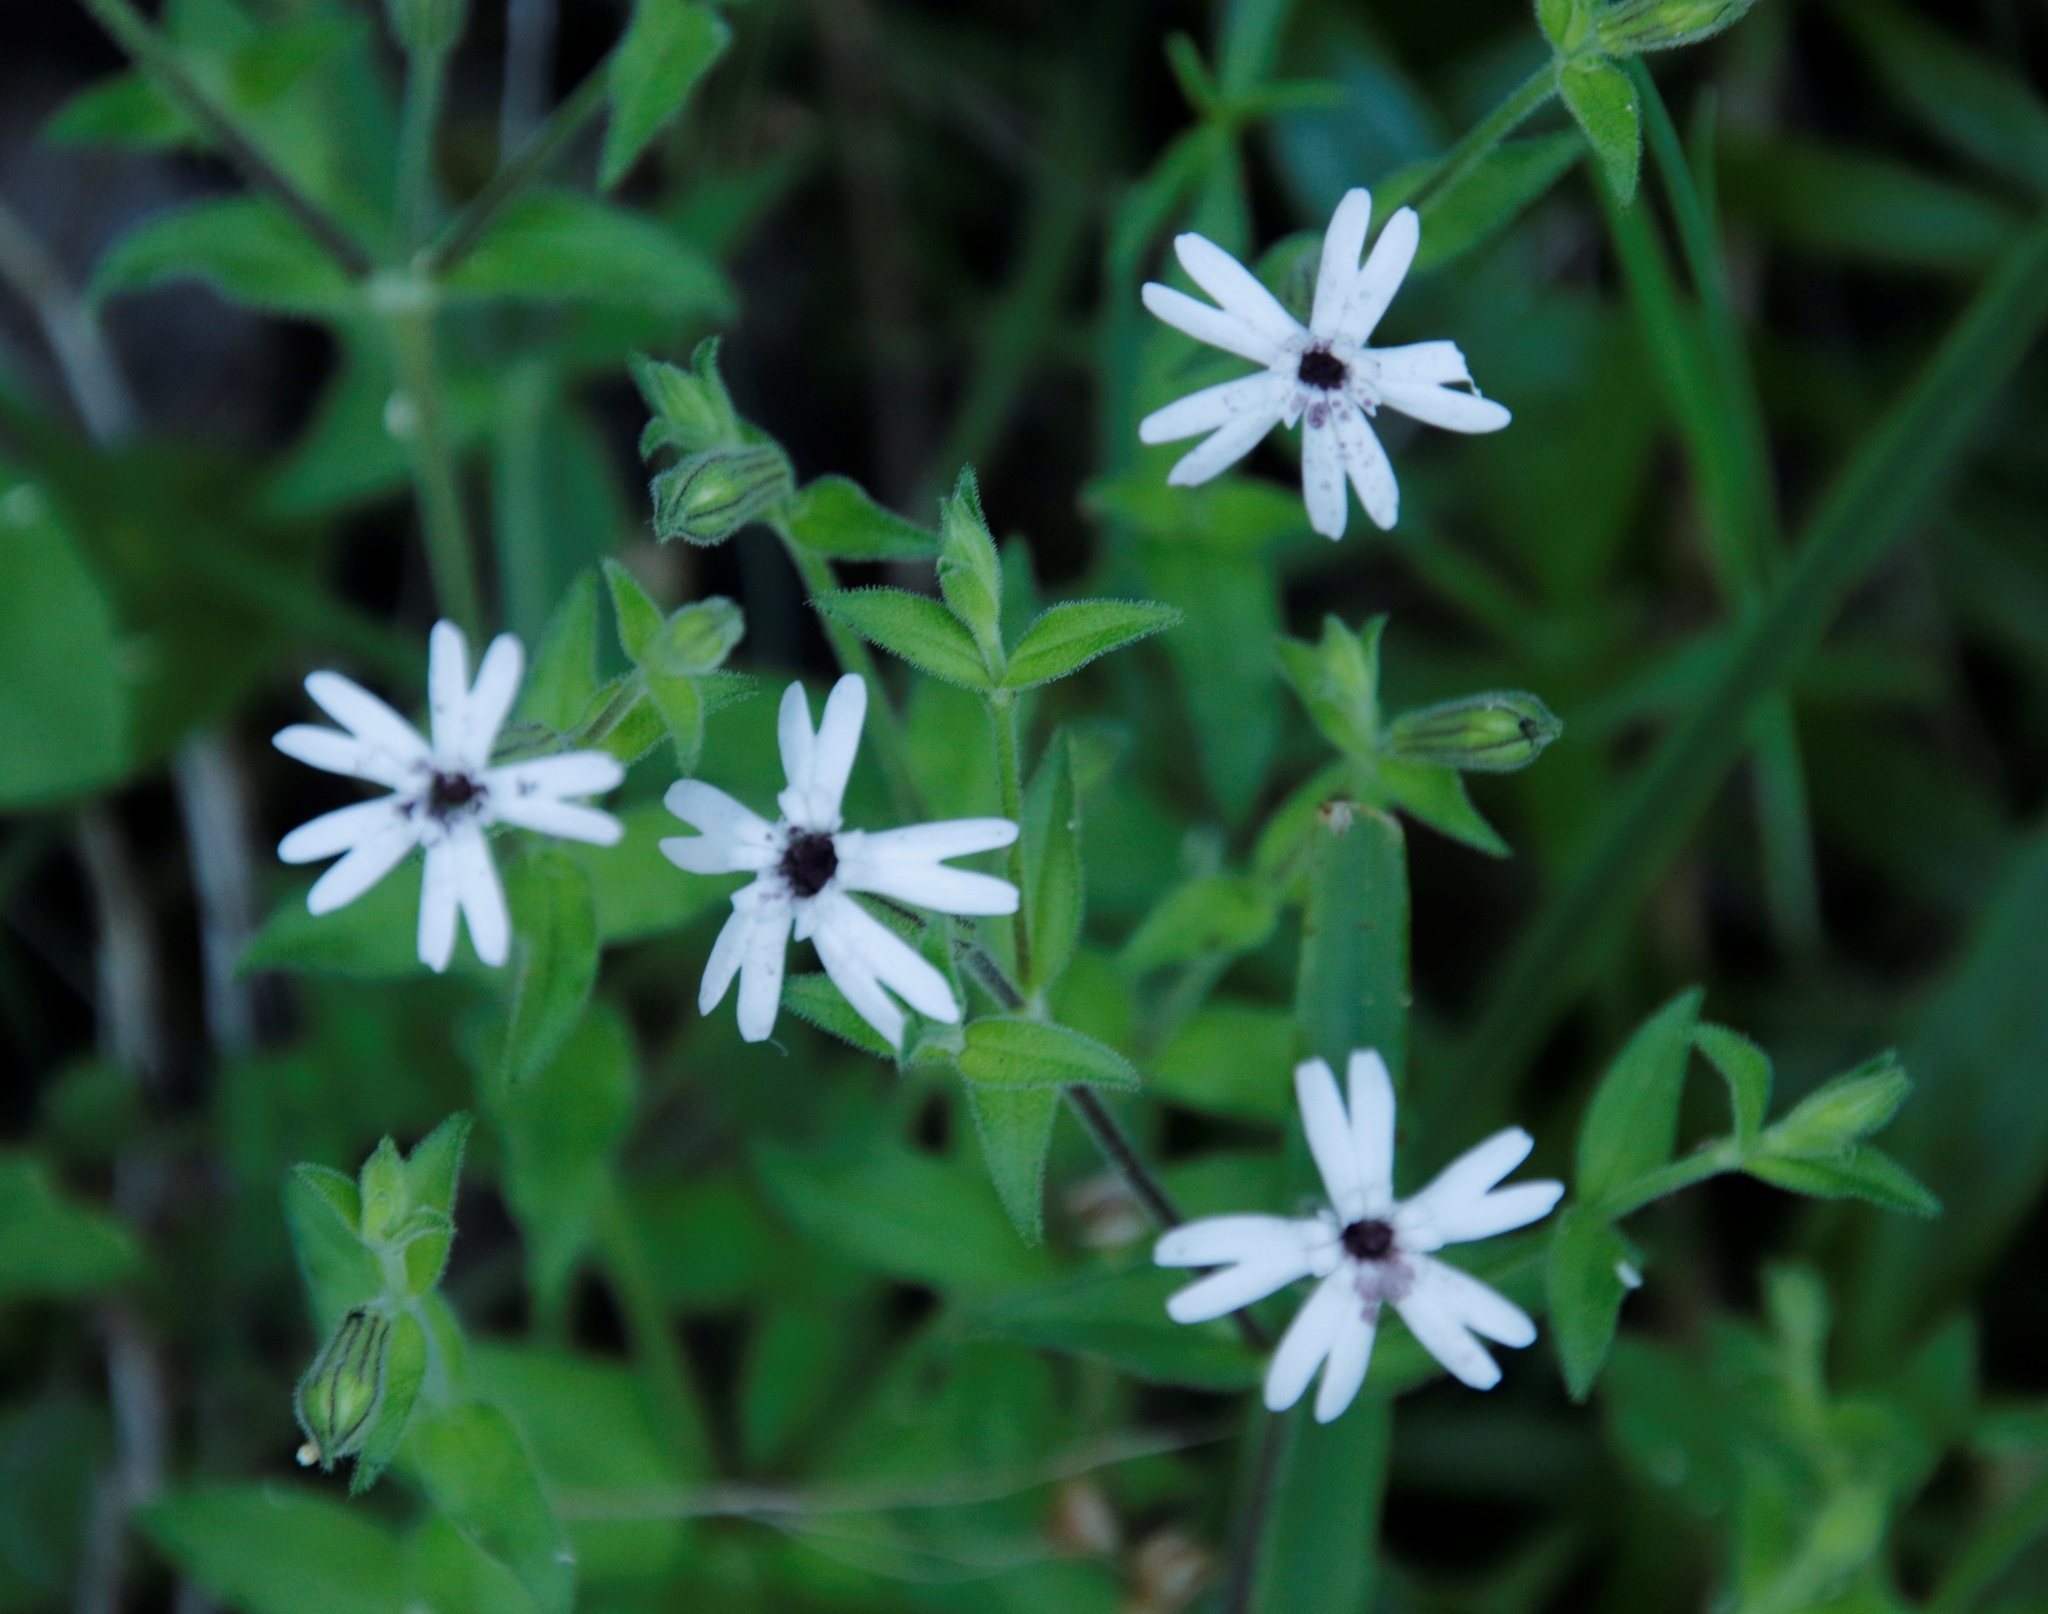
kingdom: Fungi
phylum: Basidiomycota
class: Microbotryomycetes
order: Microbotryales
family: Microbotryaceae
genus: Microbotryum
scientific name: Microbotryum
